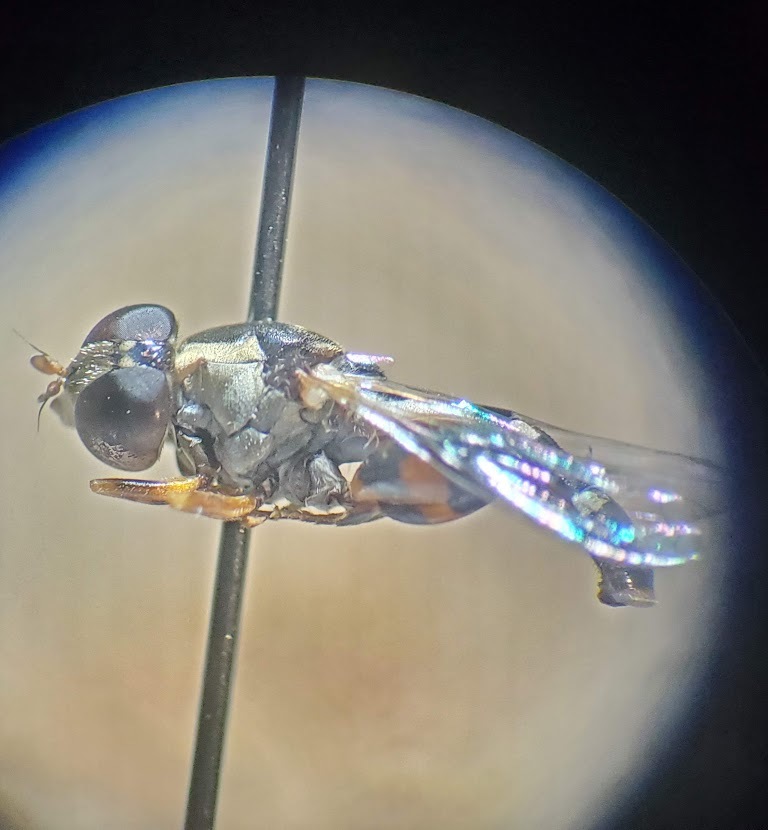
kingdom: Animalia
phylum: Arthropoda
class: Insecta
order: Diptera
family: Syrphidae
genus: Syritta
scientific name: Syritta pipiens
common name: Hover fly
